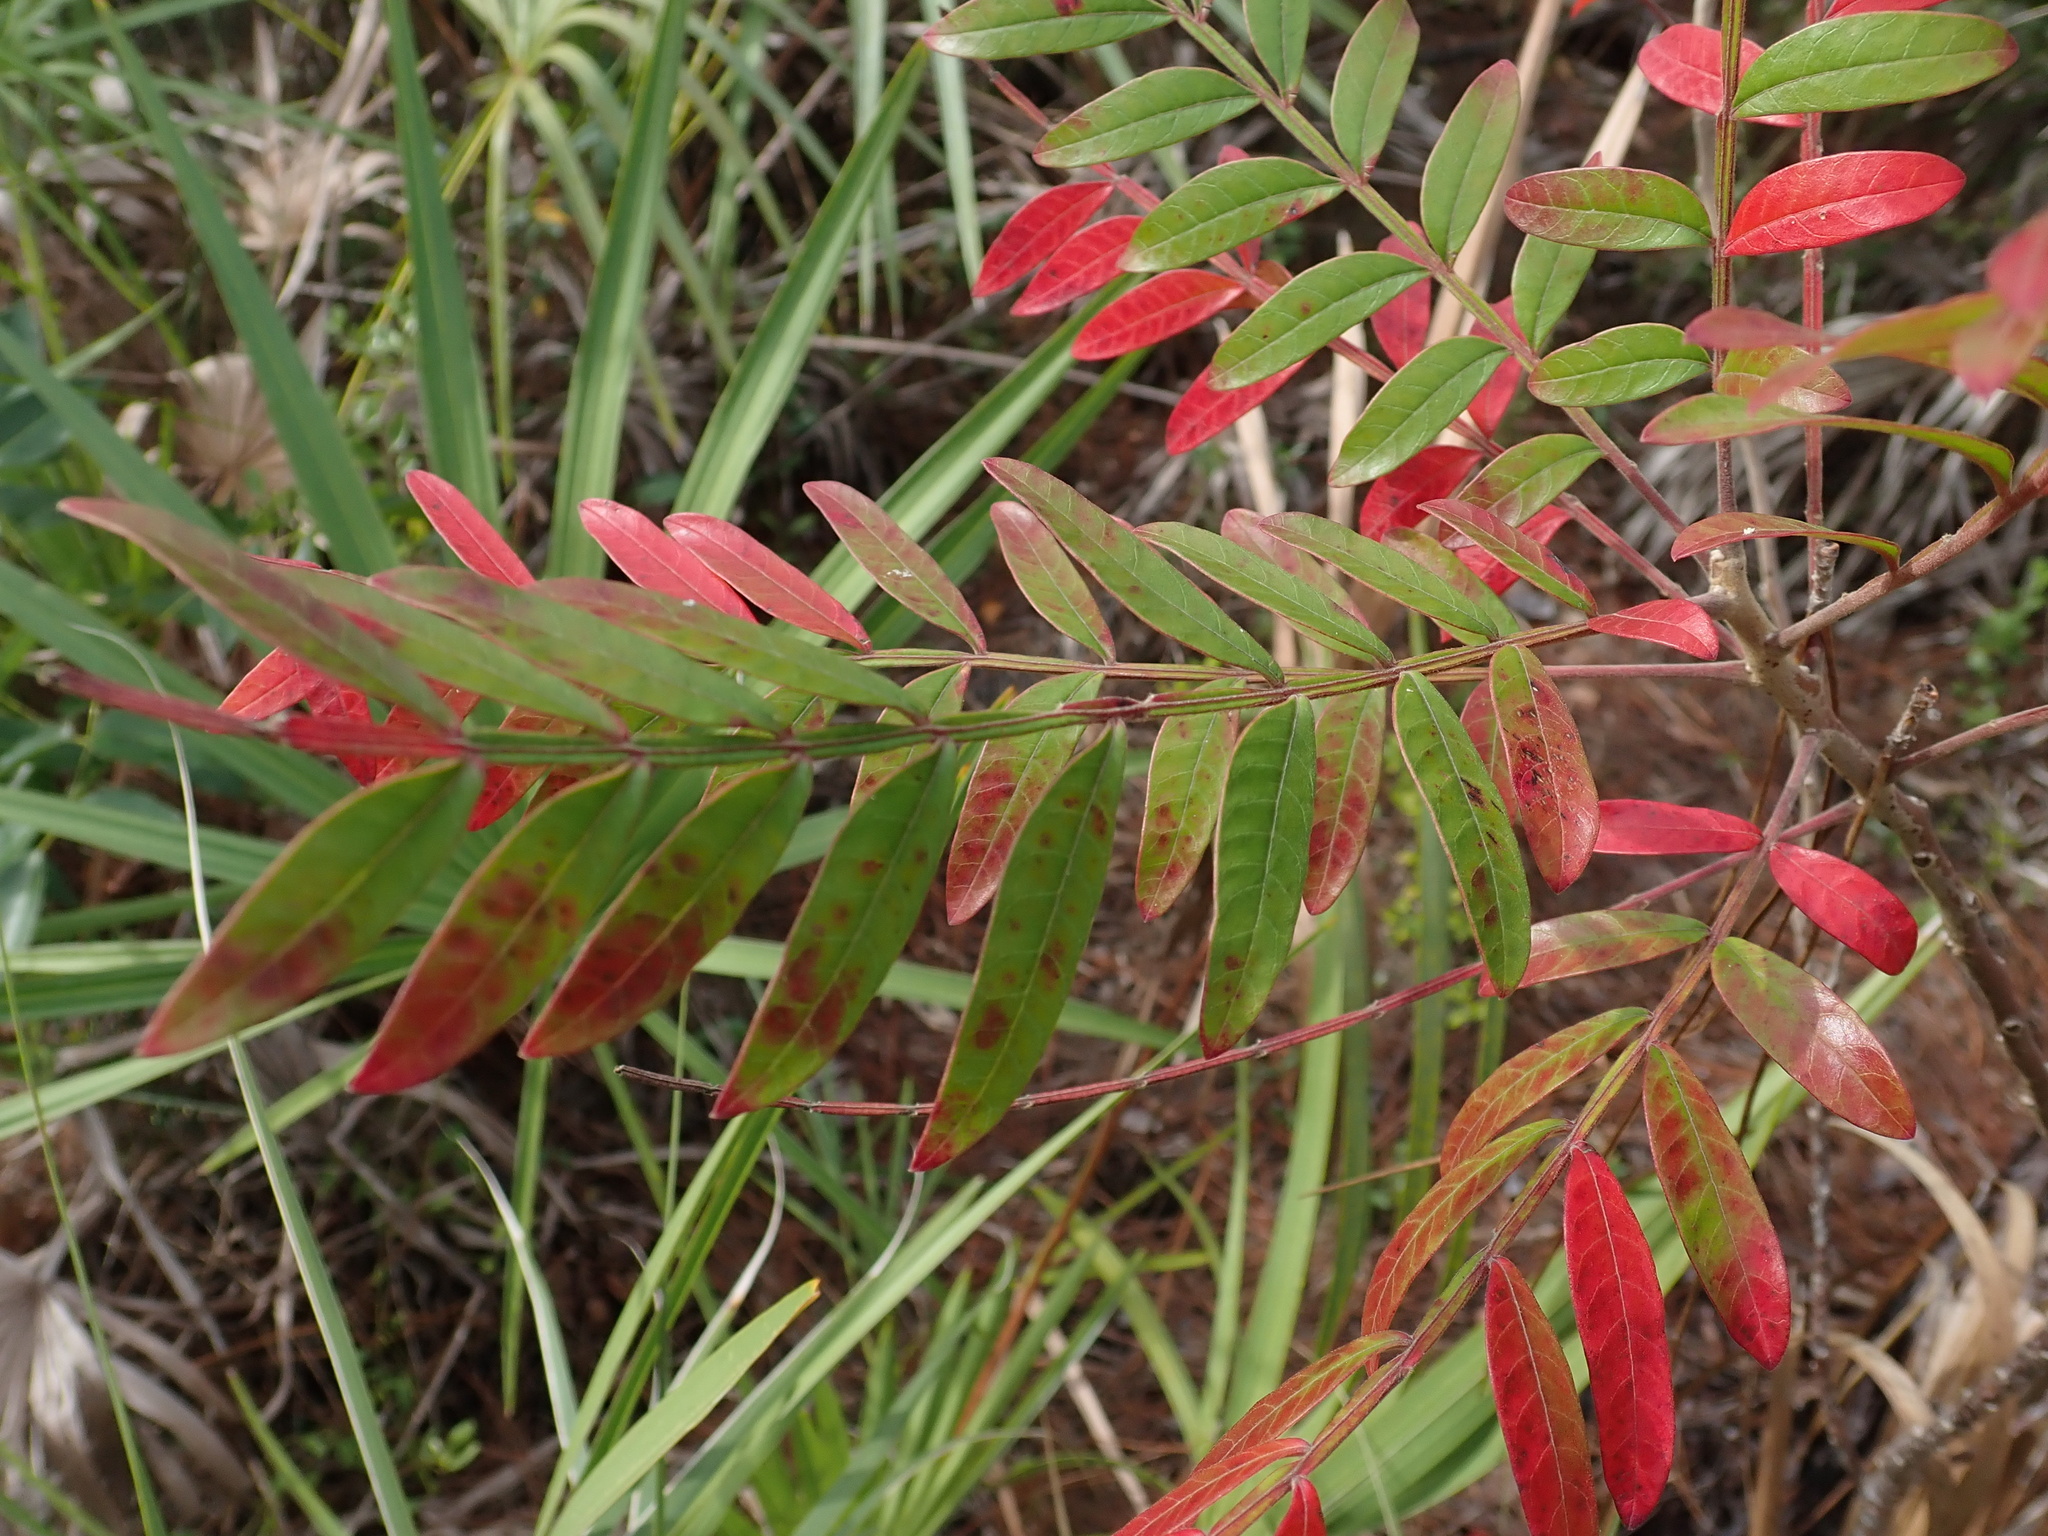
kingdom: Plantae
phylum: Tracheophyta
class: Magnoliopsida
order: Sapindales
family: Anacardiaceae
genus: Rhus
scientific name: Rhus copallina
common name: Shining sumac
